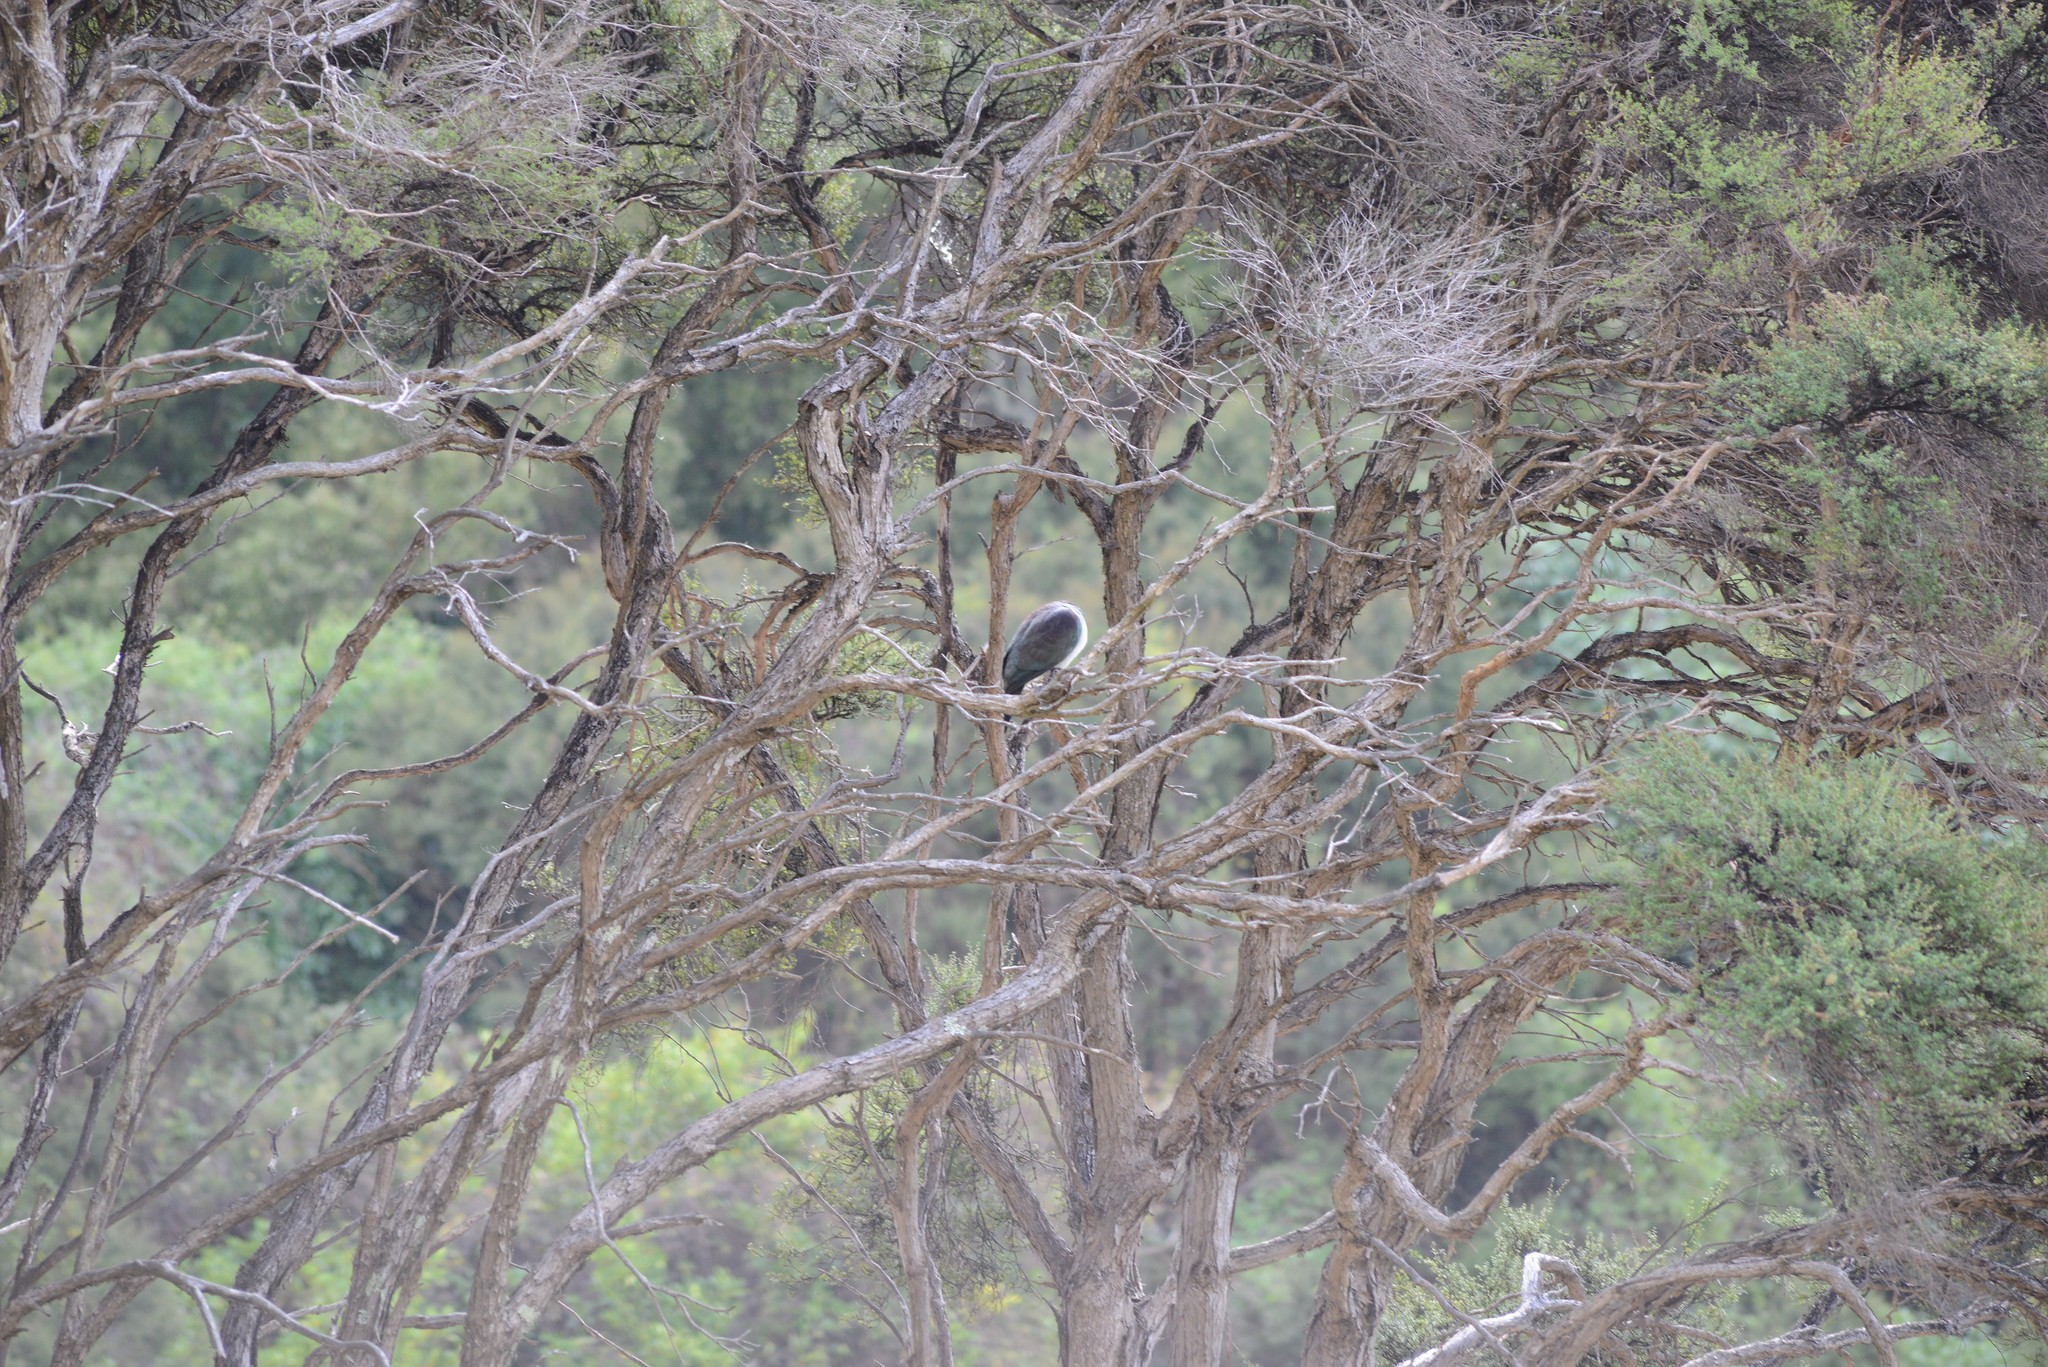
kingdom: Animalia
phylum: Chordata
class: Aves
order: Columbiformes
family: Columbidae
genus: Hemiphaga
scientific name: Hemiphaga novaeseelandiae
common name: New zealand pigeon
